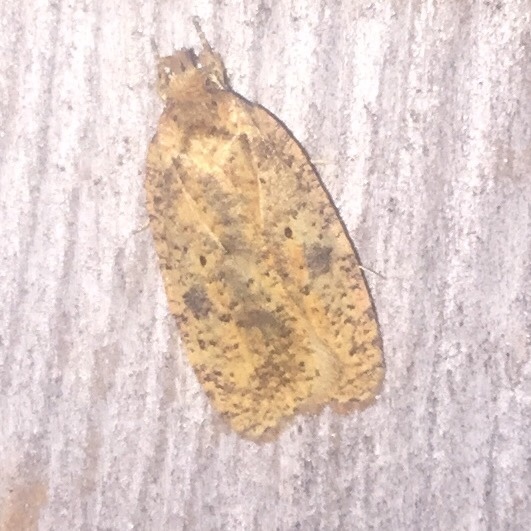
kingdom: Animalia
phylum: Arthropoda
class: Insecta
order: Lepidoptera
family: Depressariidae
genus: Agonopterix
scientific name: Agonopterix robiniella
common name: Four-dotted agonopterix moth
